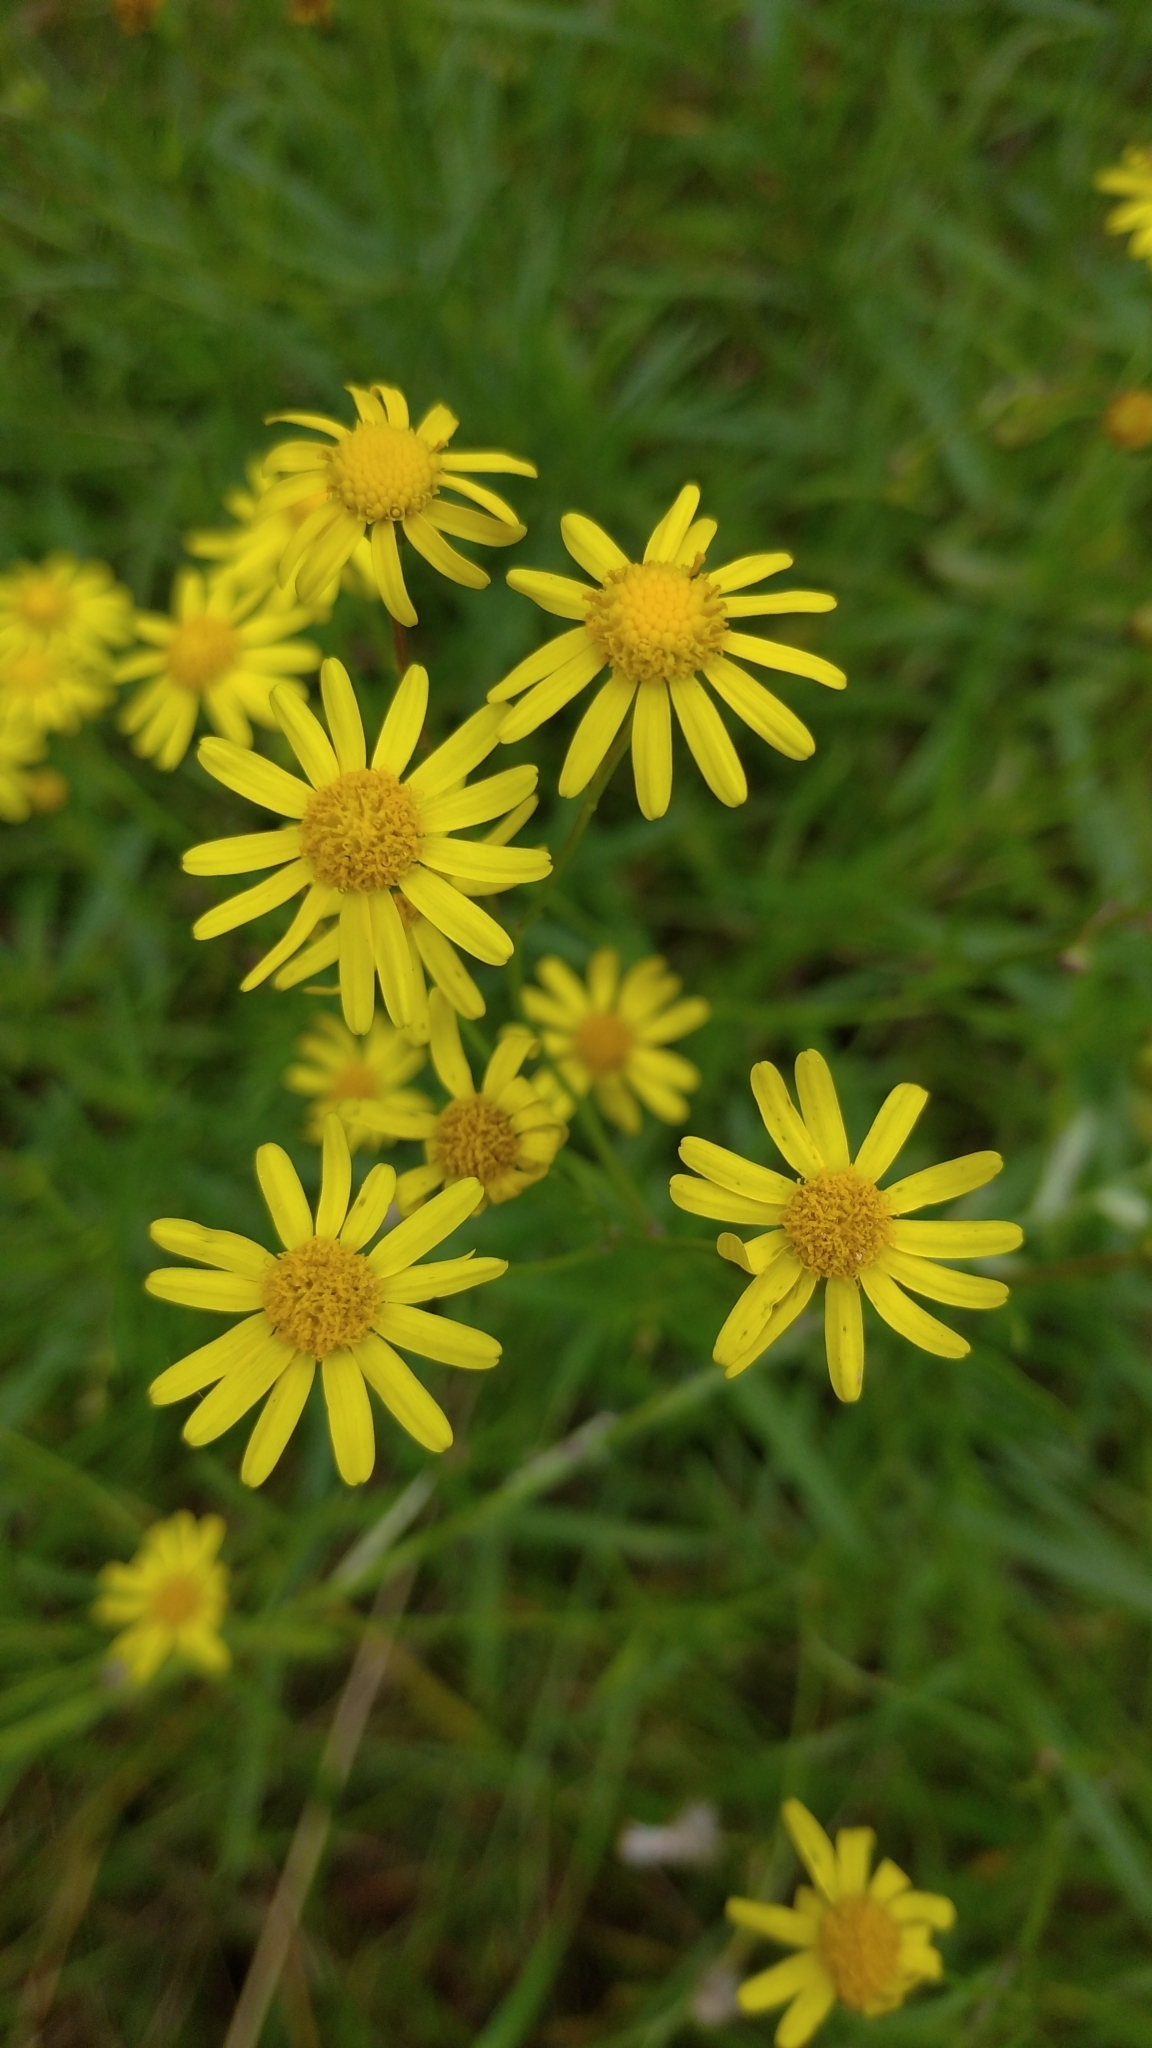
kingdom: Plantae
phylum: Tracheophyta
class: Magnoliopsida
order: Asterales
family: Asteraceae
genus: Senecio
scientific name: Senecio madagascariensis
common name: Madagascar ragwort
